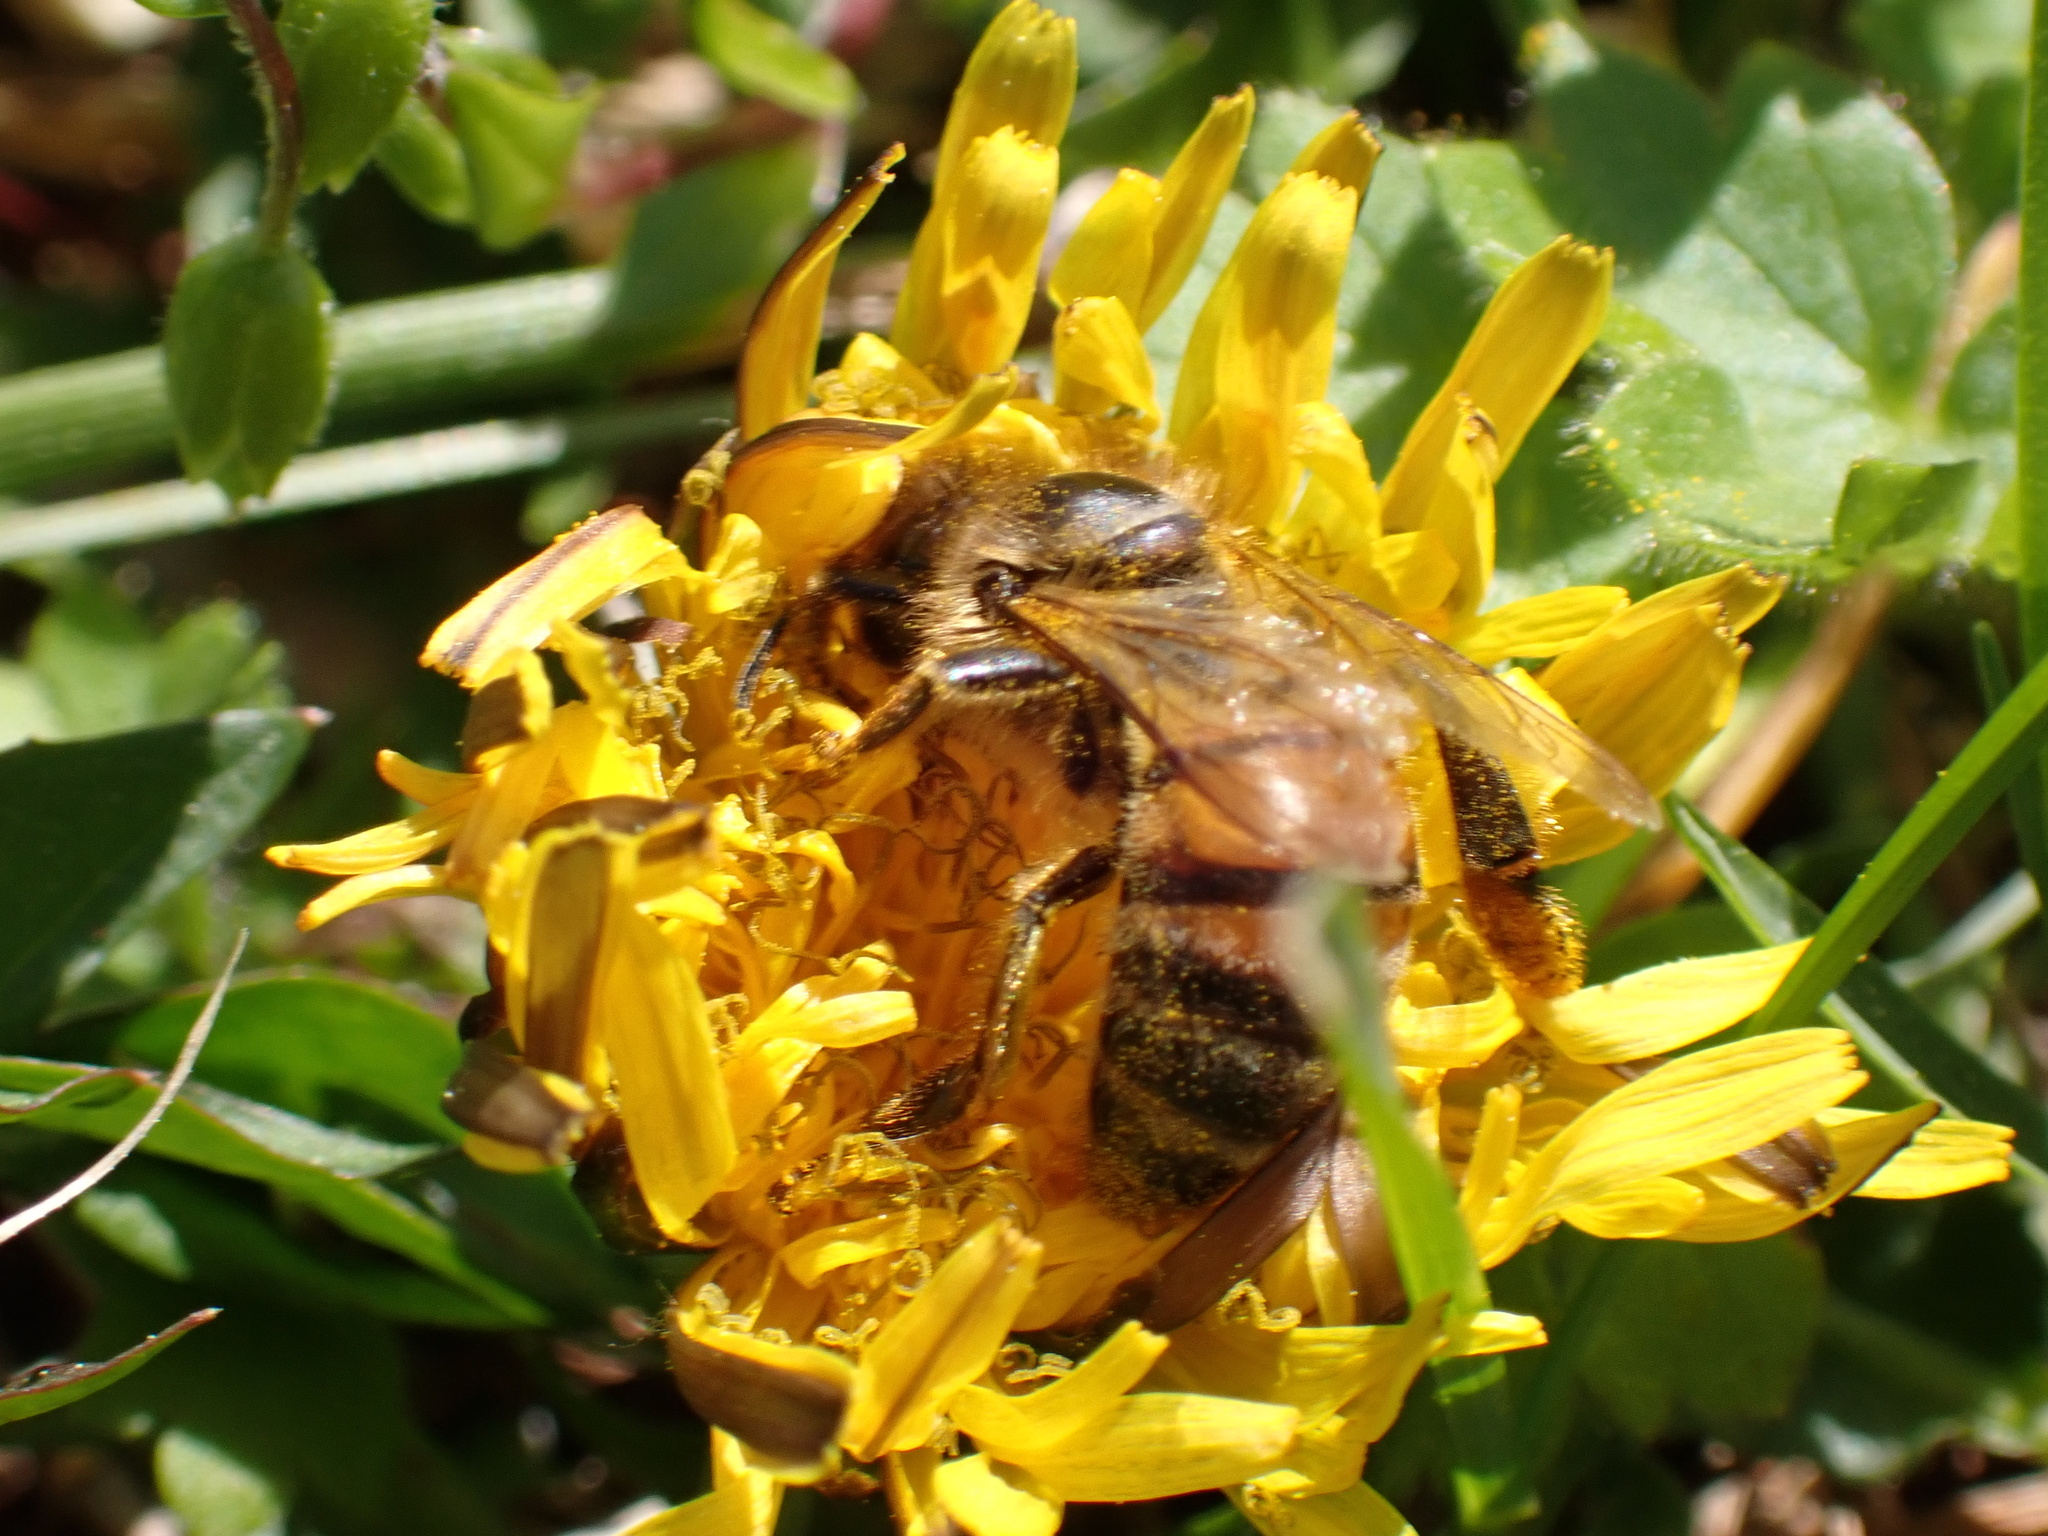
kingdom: Animalia
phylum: Arthropoda
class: Insecta
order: Hymenoptera
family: Apidae
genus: Apis
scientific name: Apis mellifera
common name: Honey bee
